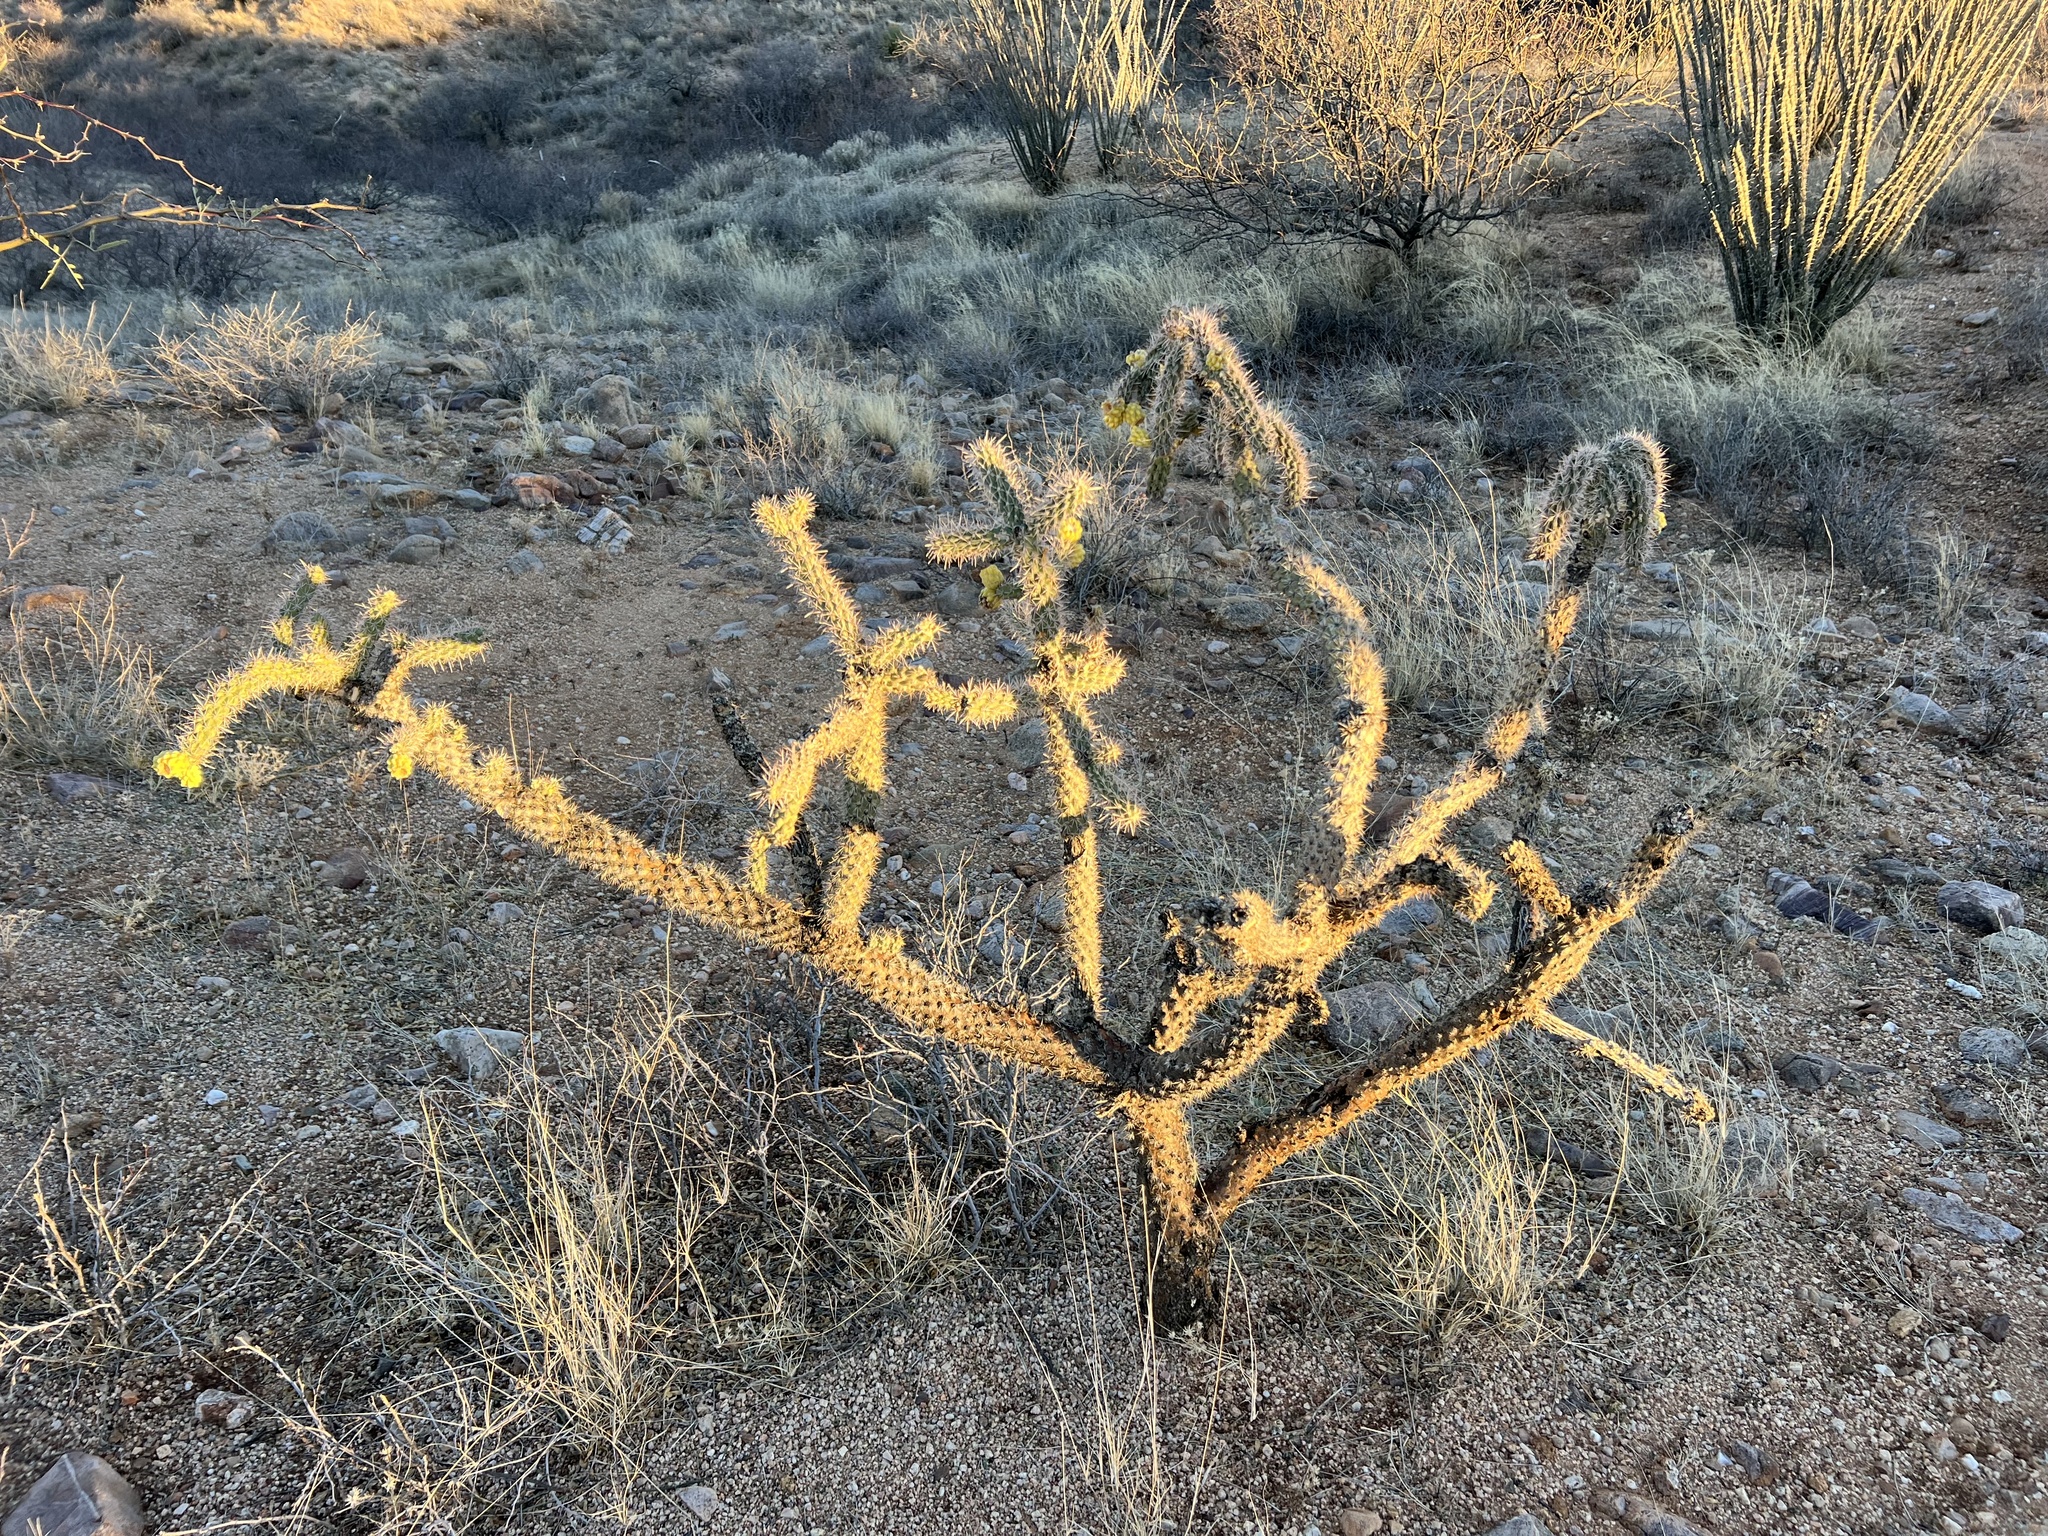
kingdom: Plantae
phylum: Tracheophyta
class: Magnoliopsida
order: Caryophyllales
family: Cactaceae
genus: Cylindropuntia
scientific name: Cylindropuntia imbricata
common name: Candelabrum cactus
